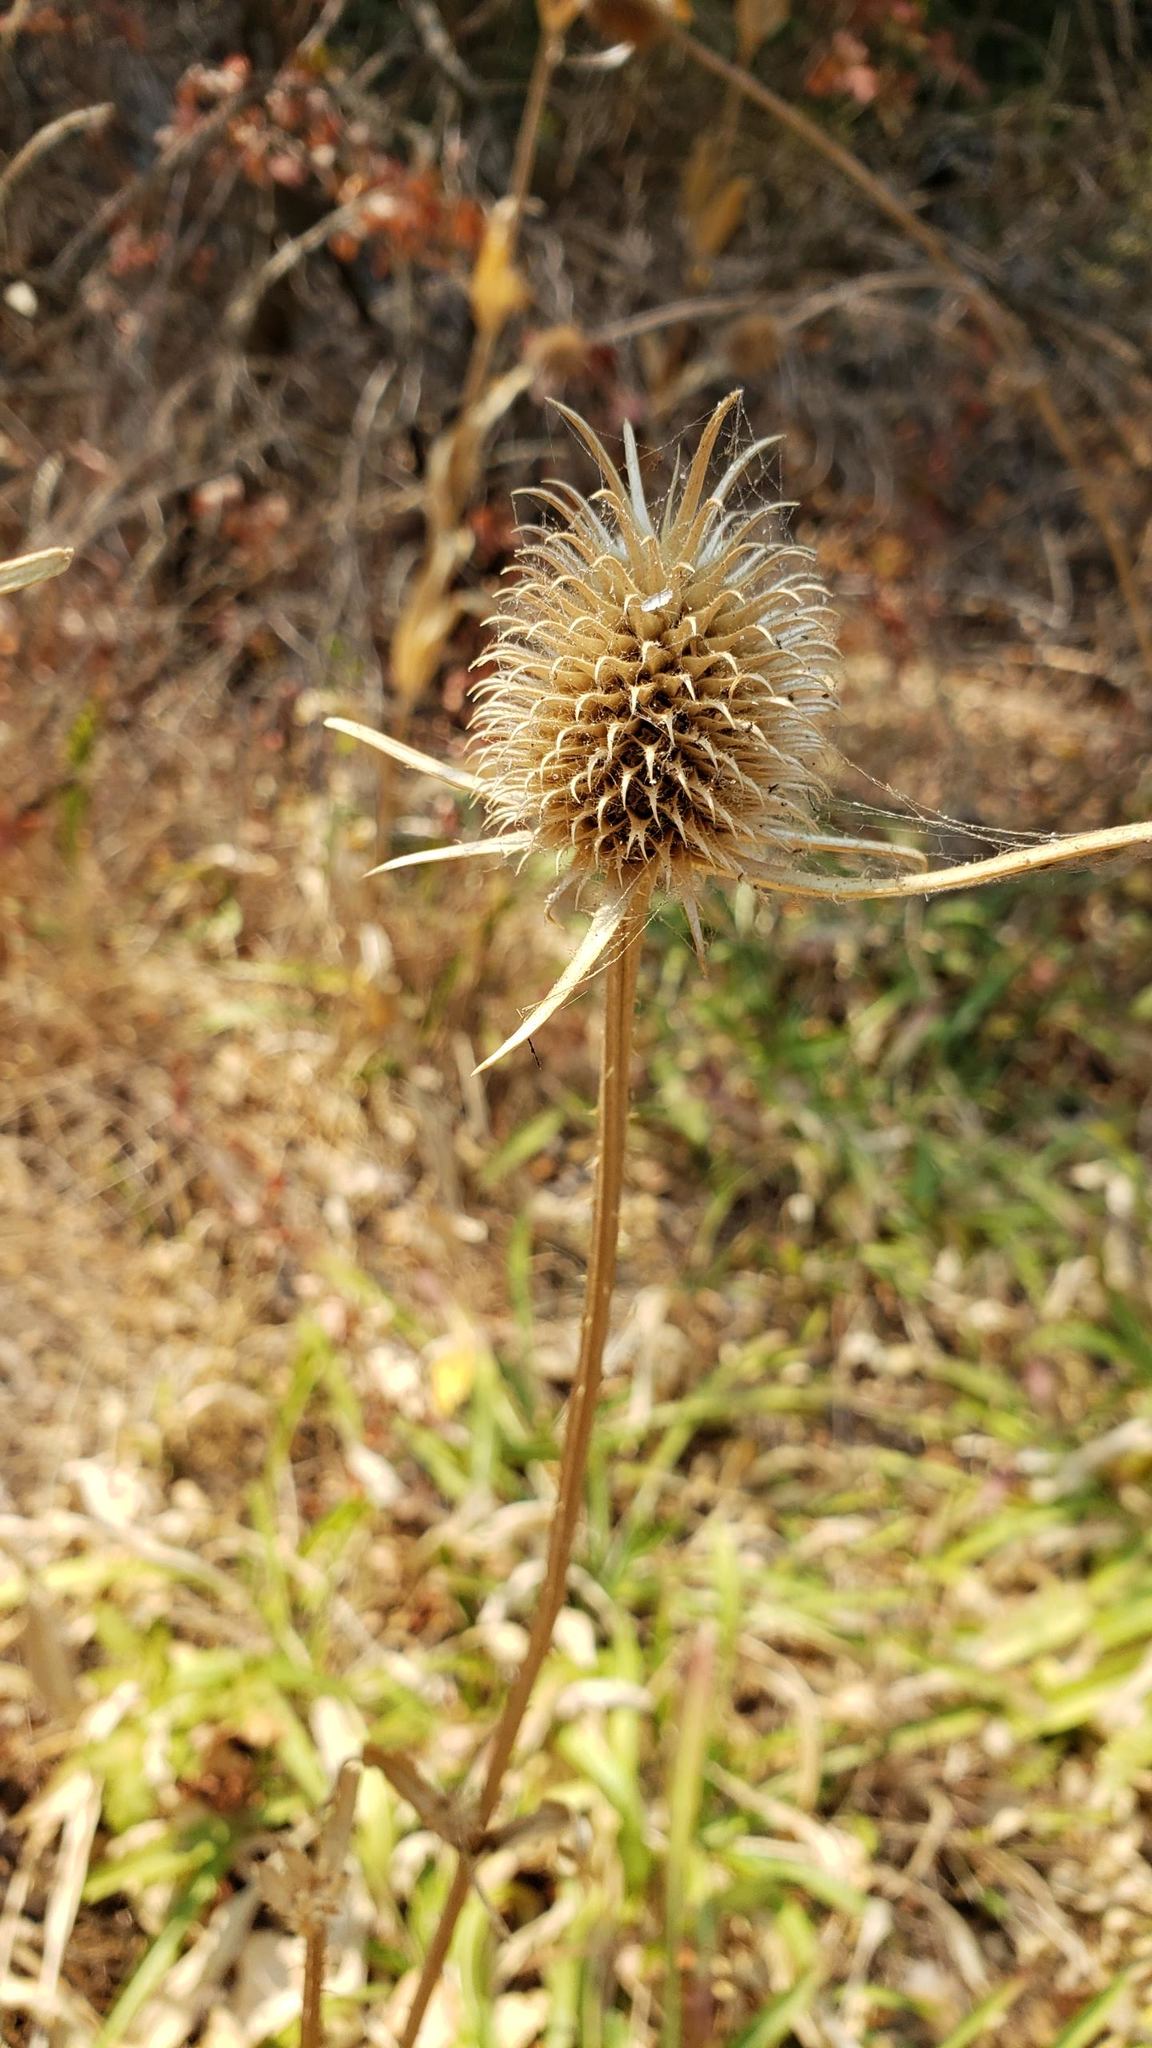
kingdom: Plantae
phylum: Tracheophyta
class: Magnoliopsida
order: Dipsacales
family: Caprifoliaceae
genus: Dipsacus
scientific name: Dipsacus sativus
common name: Fuller's teasel
